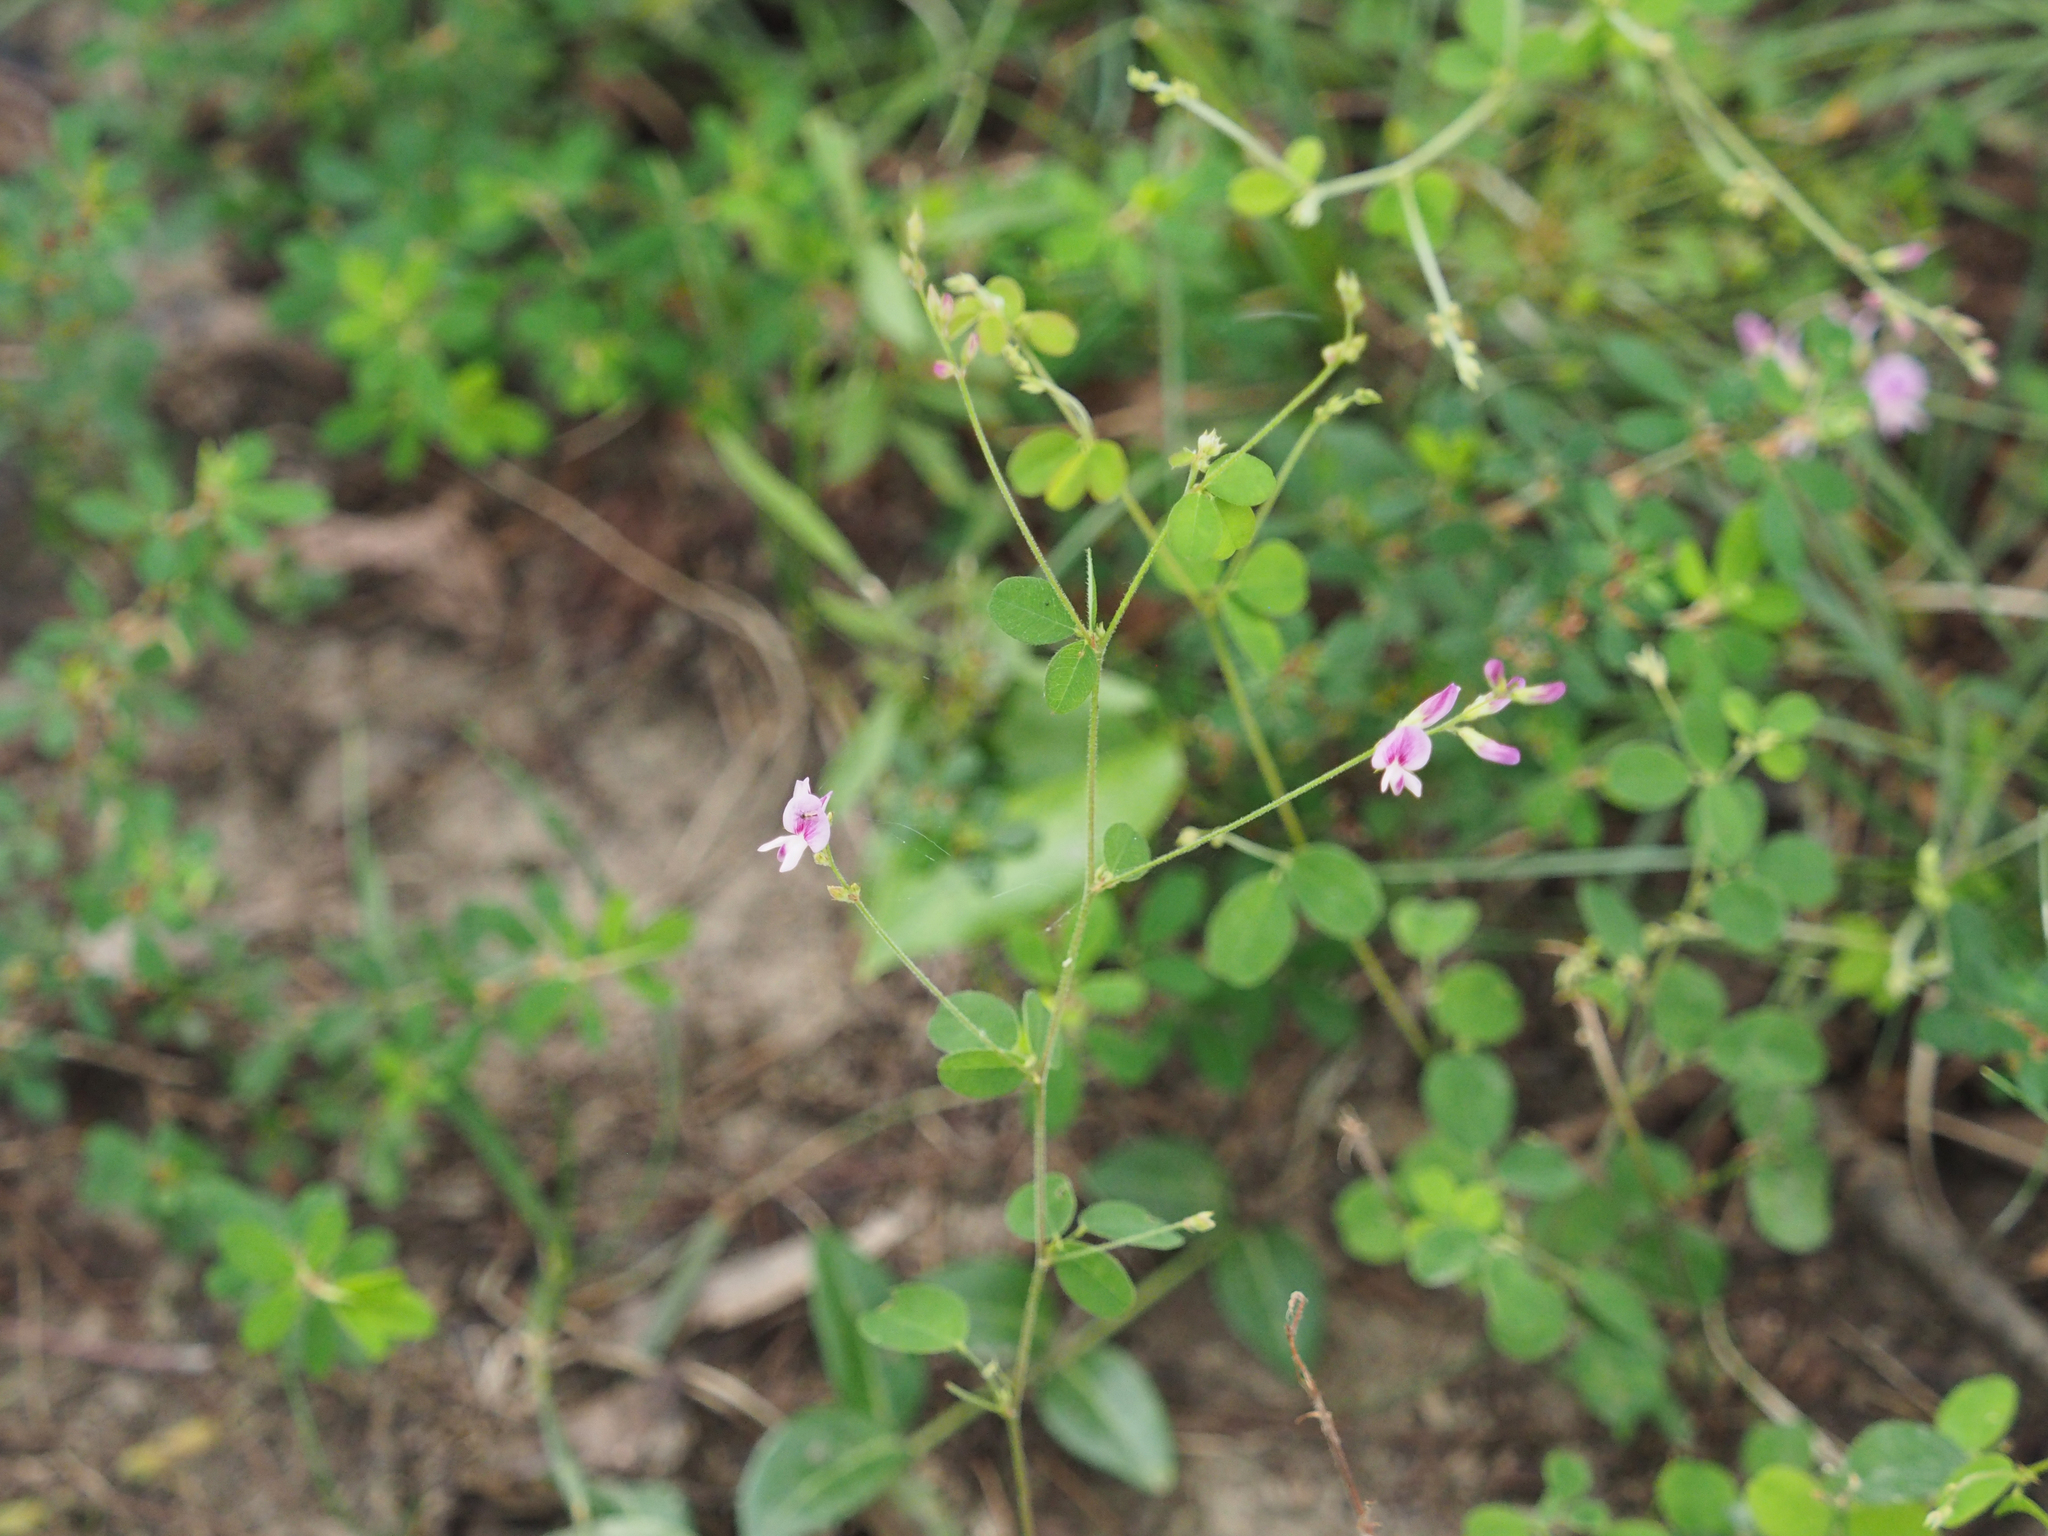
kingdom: Plantae
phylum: Tracheophyta
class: Magnoliopsida
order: Fabales
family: Fabaceae
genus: Lespedeza
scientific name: Lespedeza procumbens
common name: Downy trailing bush-clover
